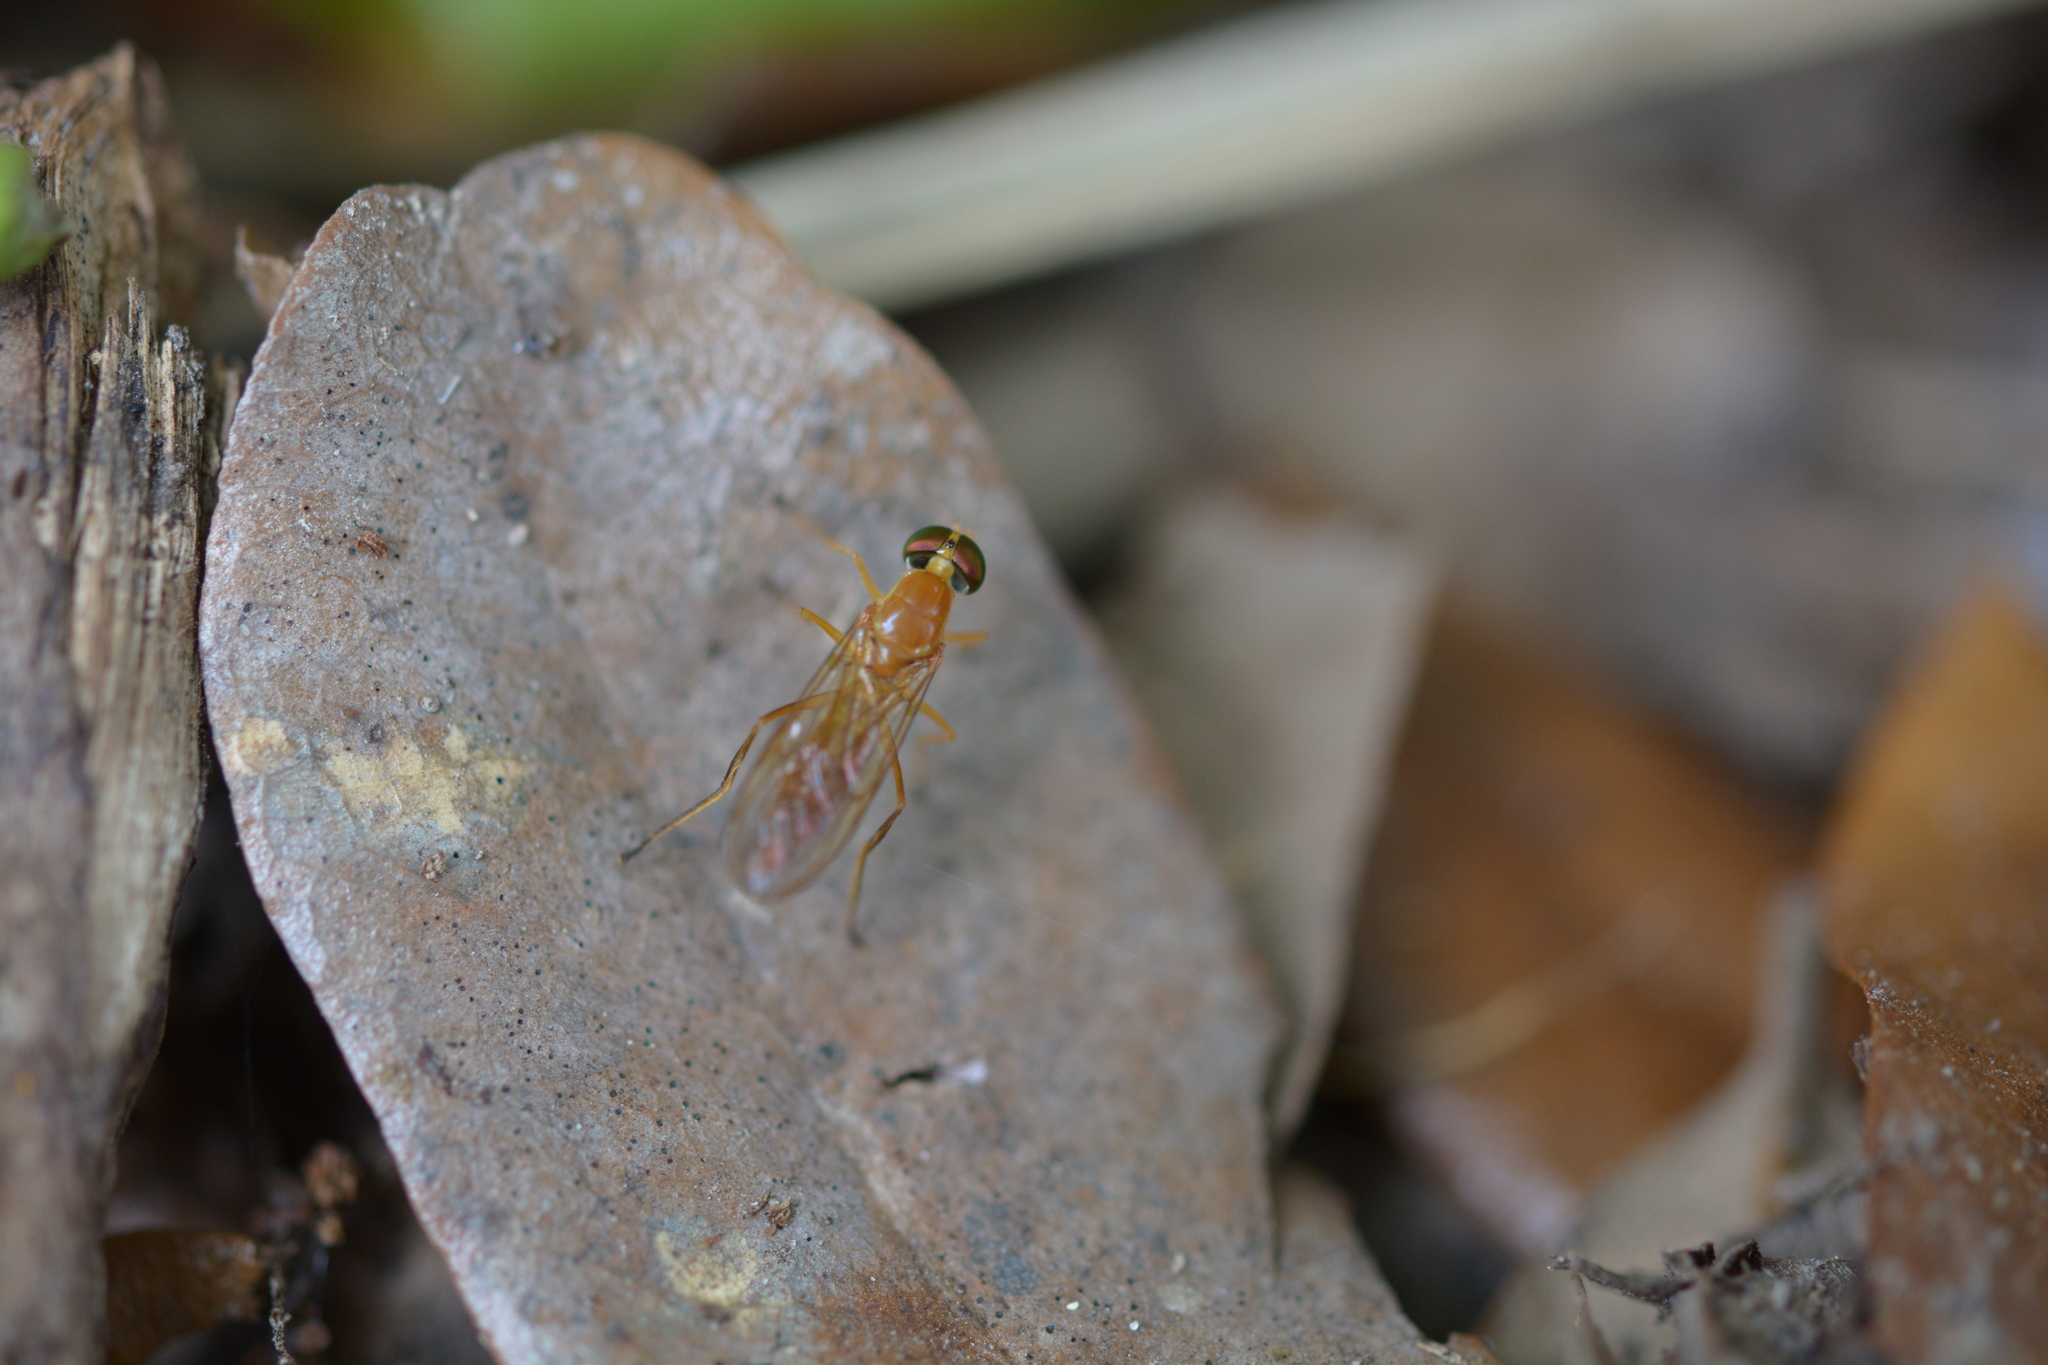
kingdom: Animalia
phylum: Arthropoda
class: Insecta
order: Diptera
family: Stratiomyidae
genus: Ptecticus
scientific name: Ptecticus trivittatus
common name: Compost fly
